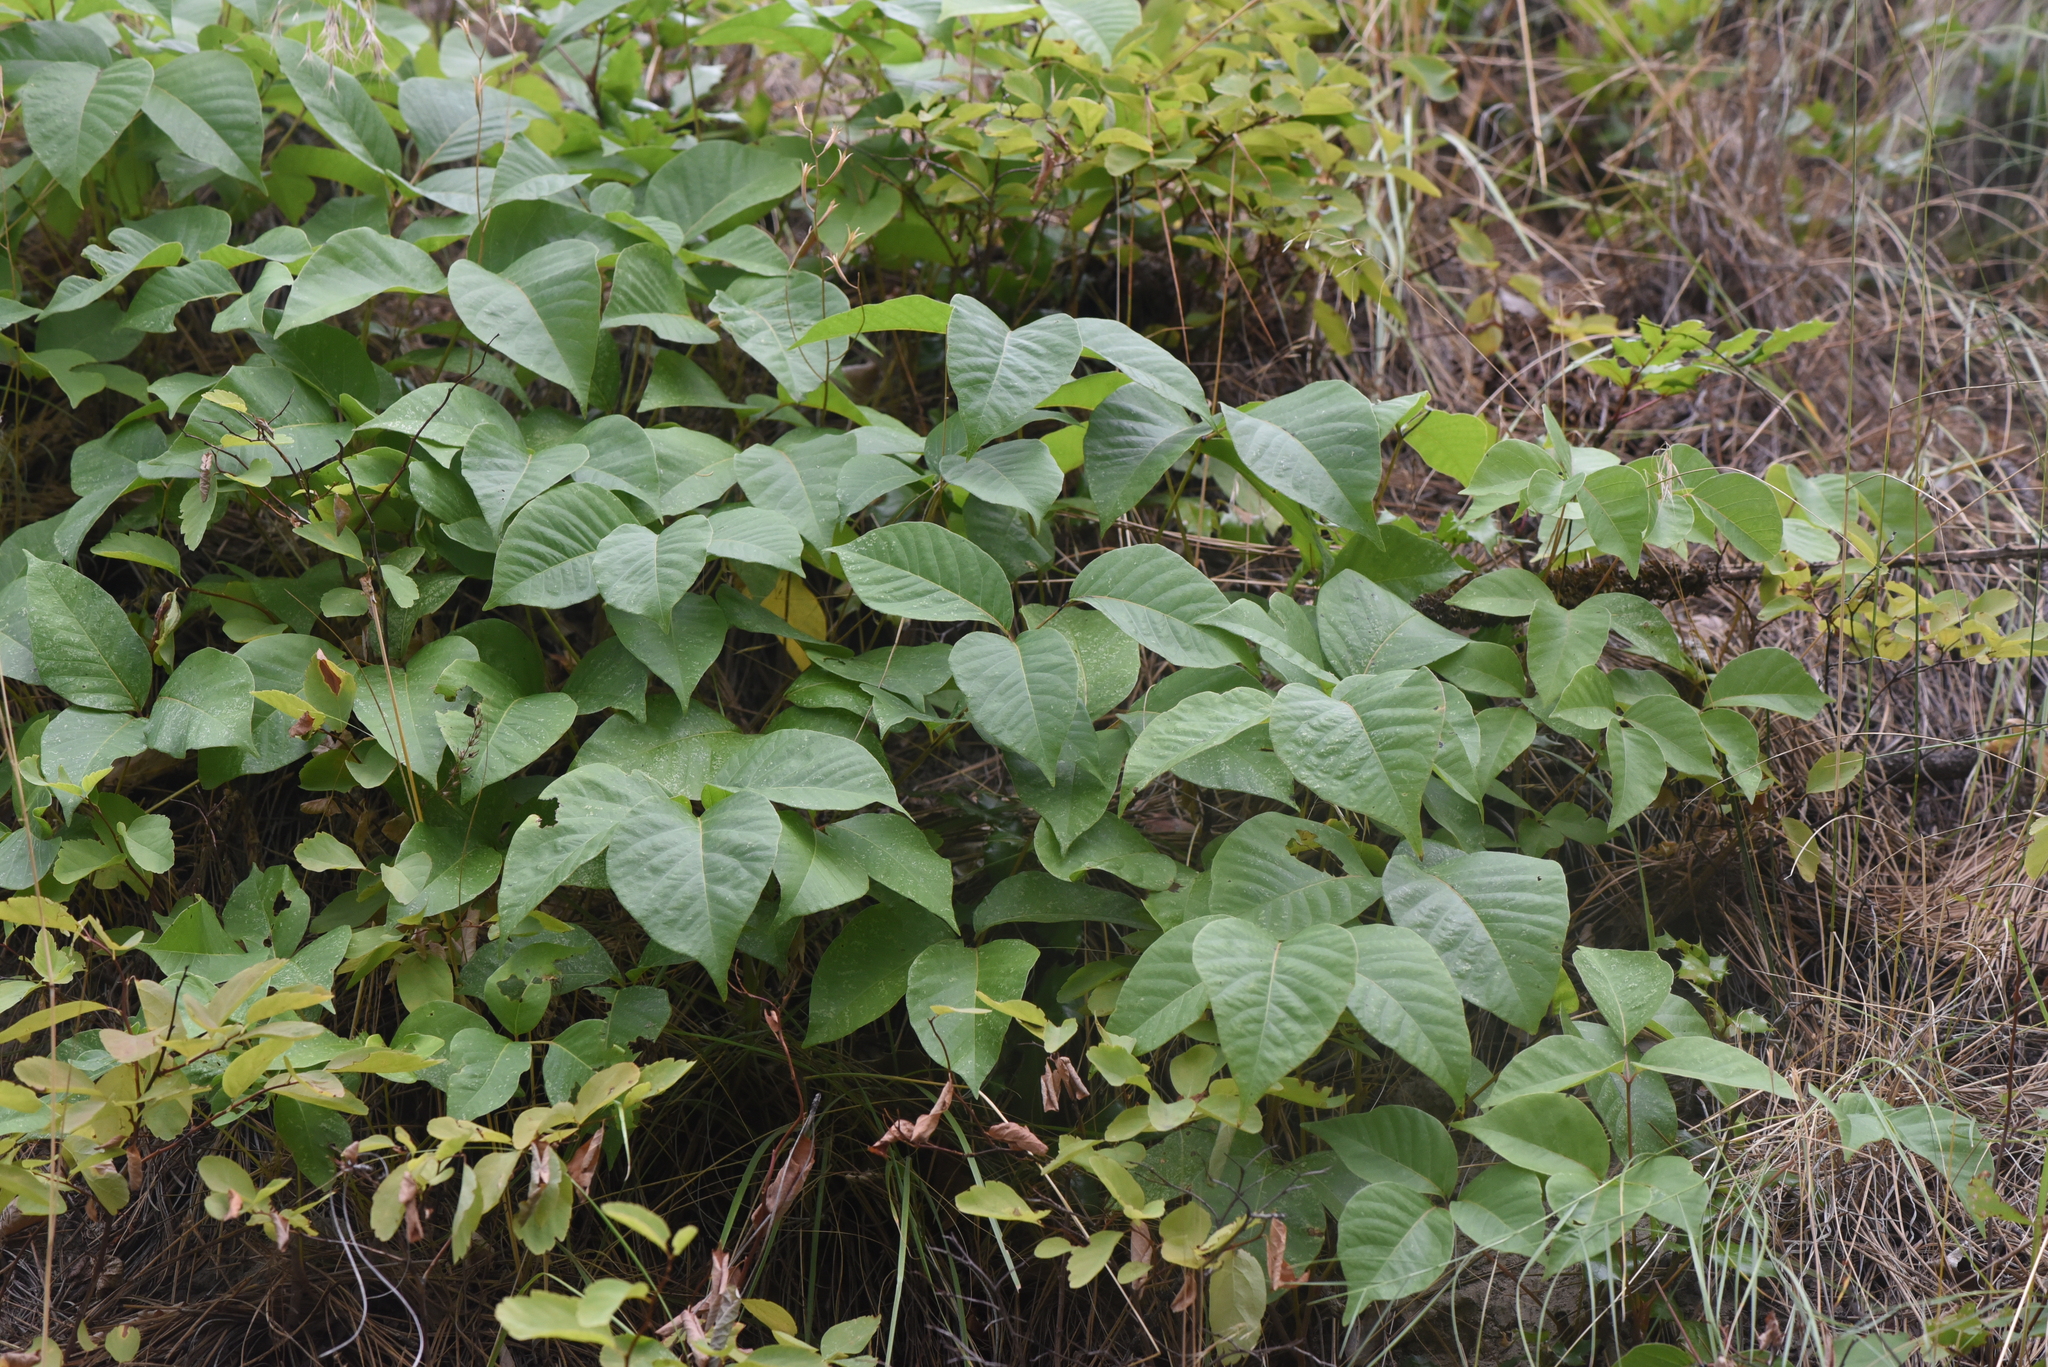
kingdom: Plantae
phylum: Tracheophyta
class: Magnoliopsida
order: Sapindales
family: Anacardiaceae
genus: Toxicodendron
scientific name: Toxicodendron rydbergii
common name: Rydberg's poison-ivy
